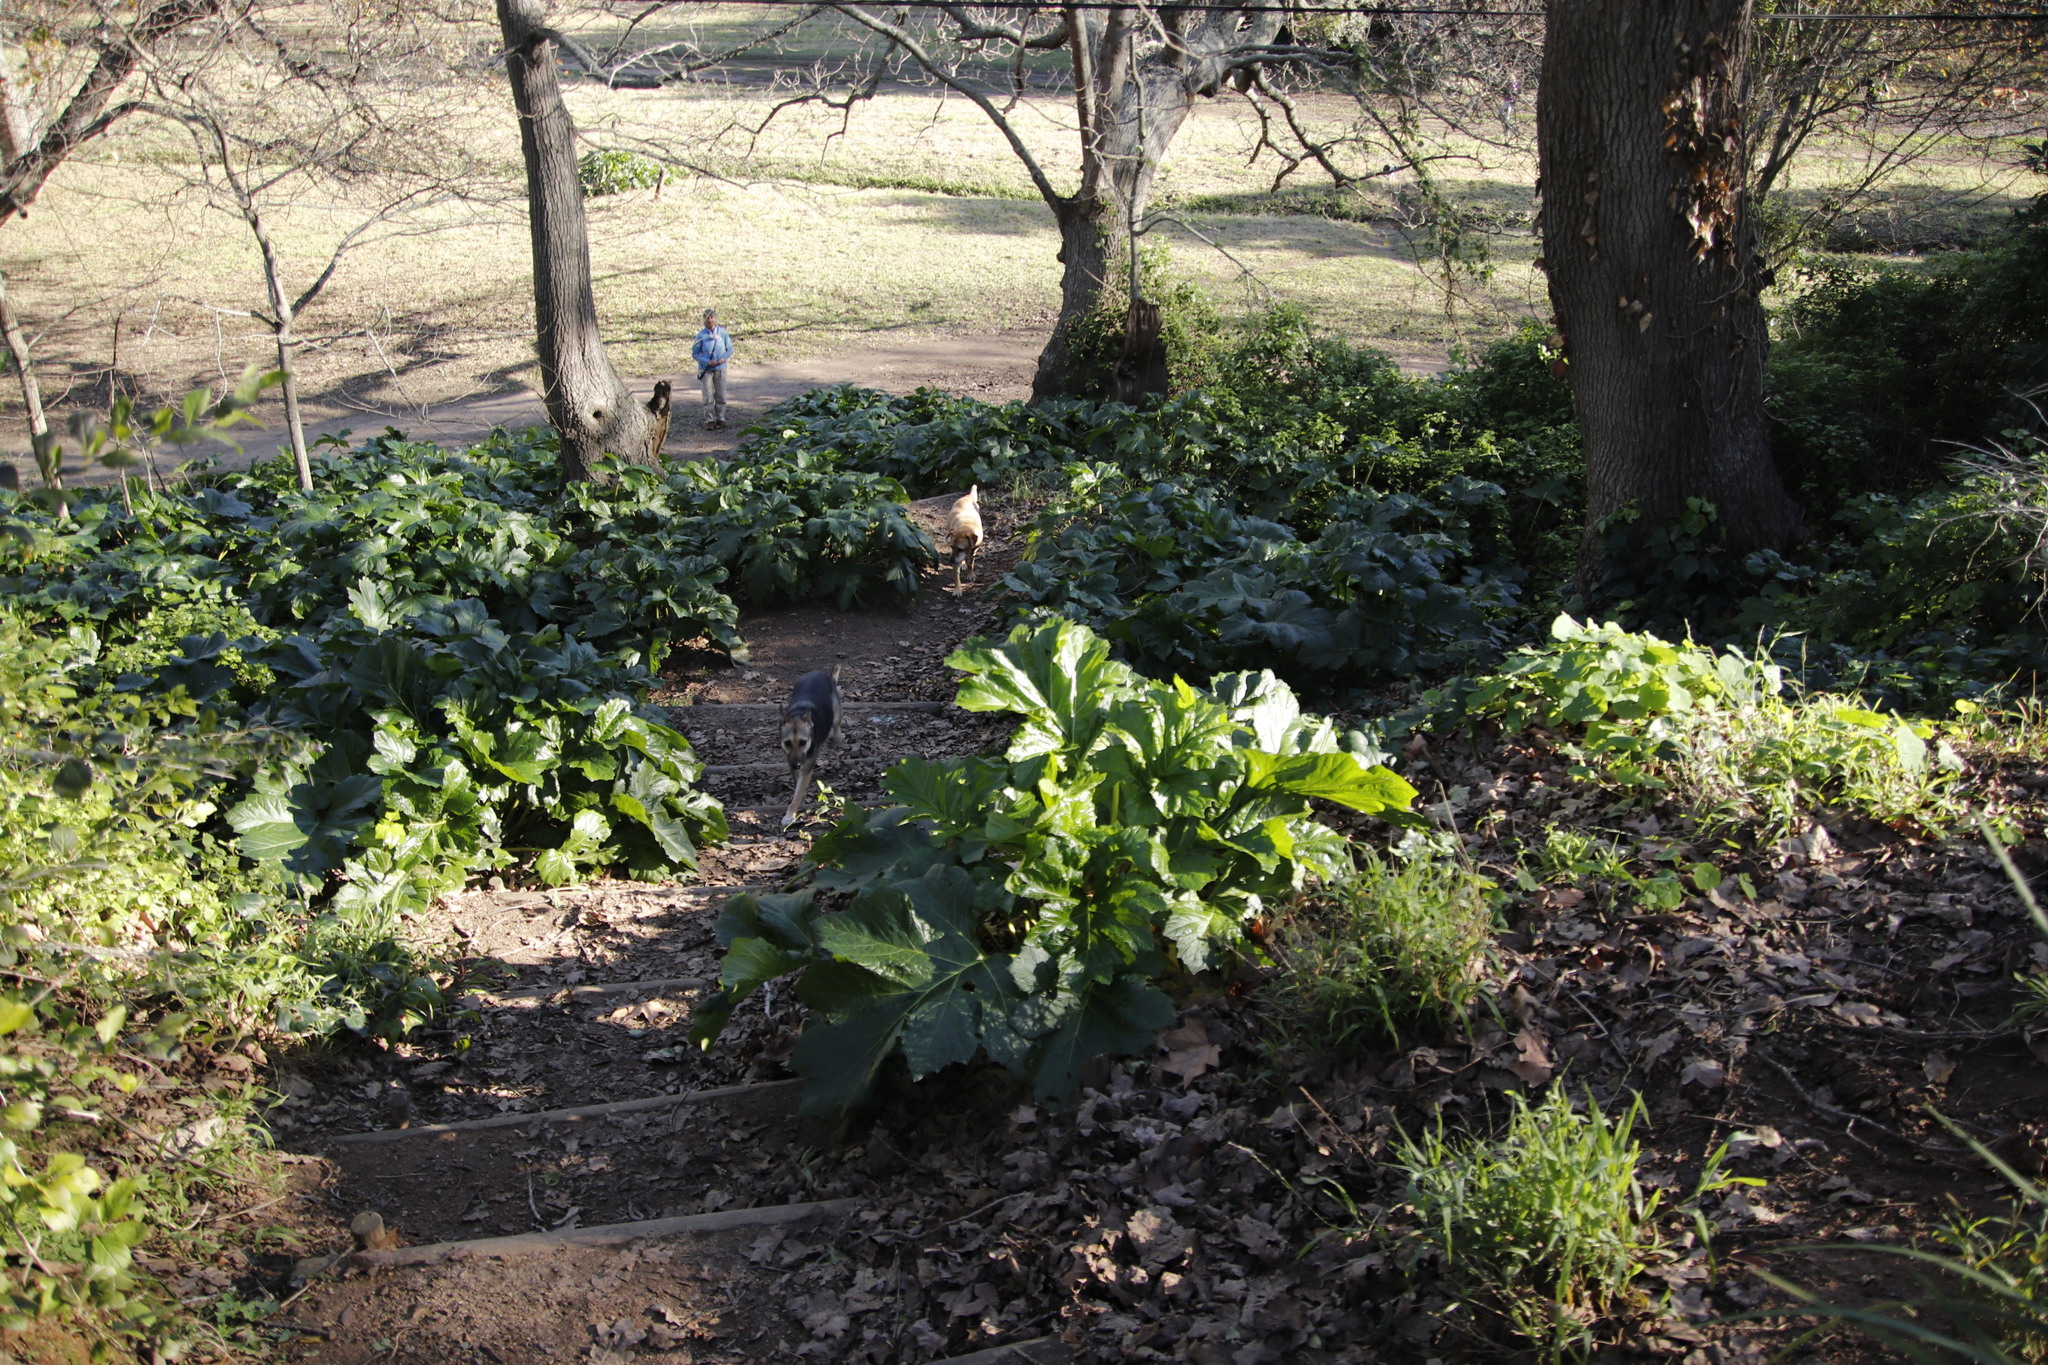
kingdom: Plantae
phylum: Tracheophyta
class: Magnoliopsida
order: Lamiales
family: Acanthaceae
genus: Acanthus
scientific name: Acanthus mollis
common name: Bear's-breech
